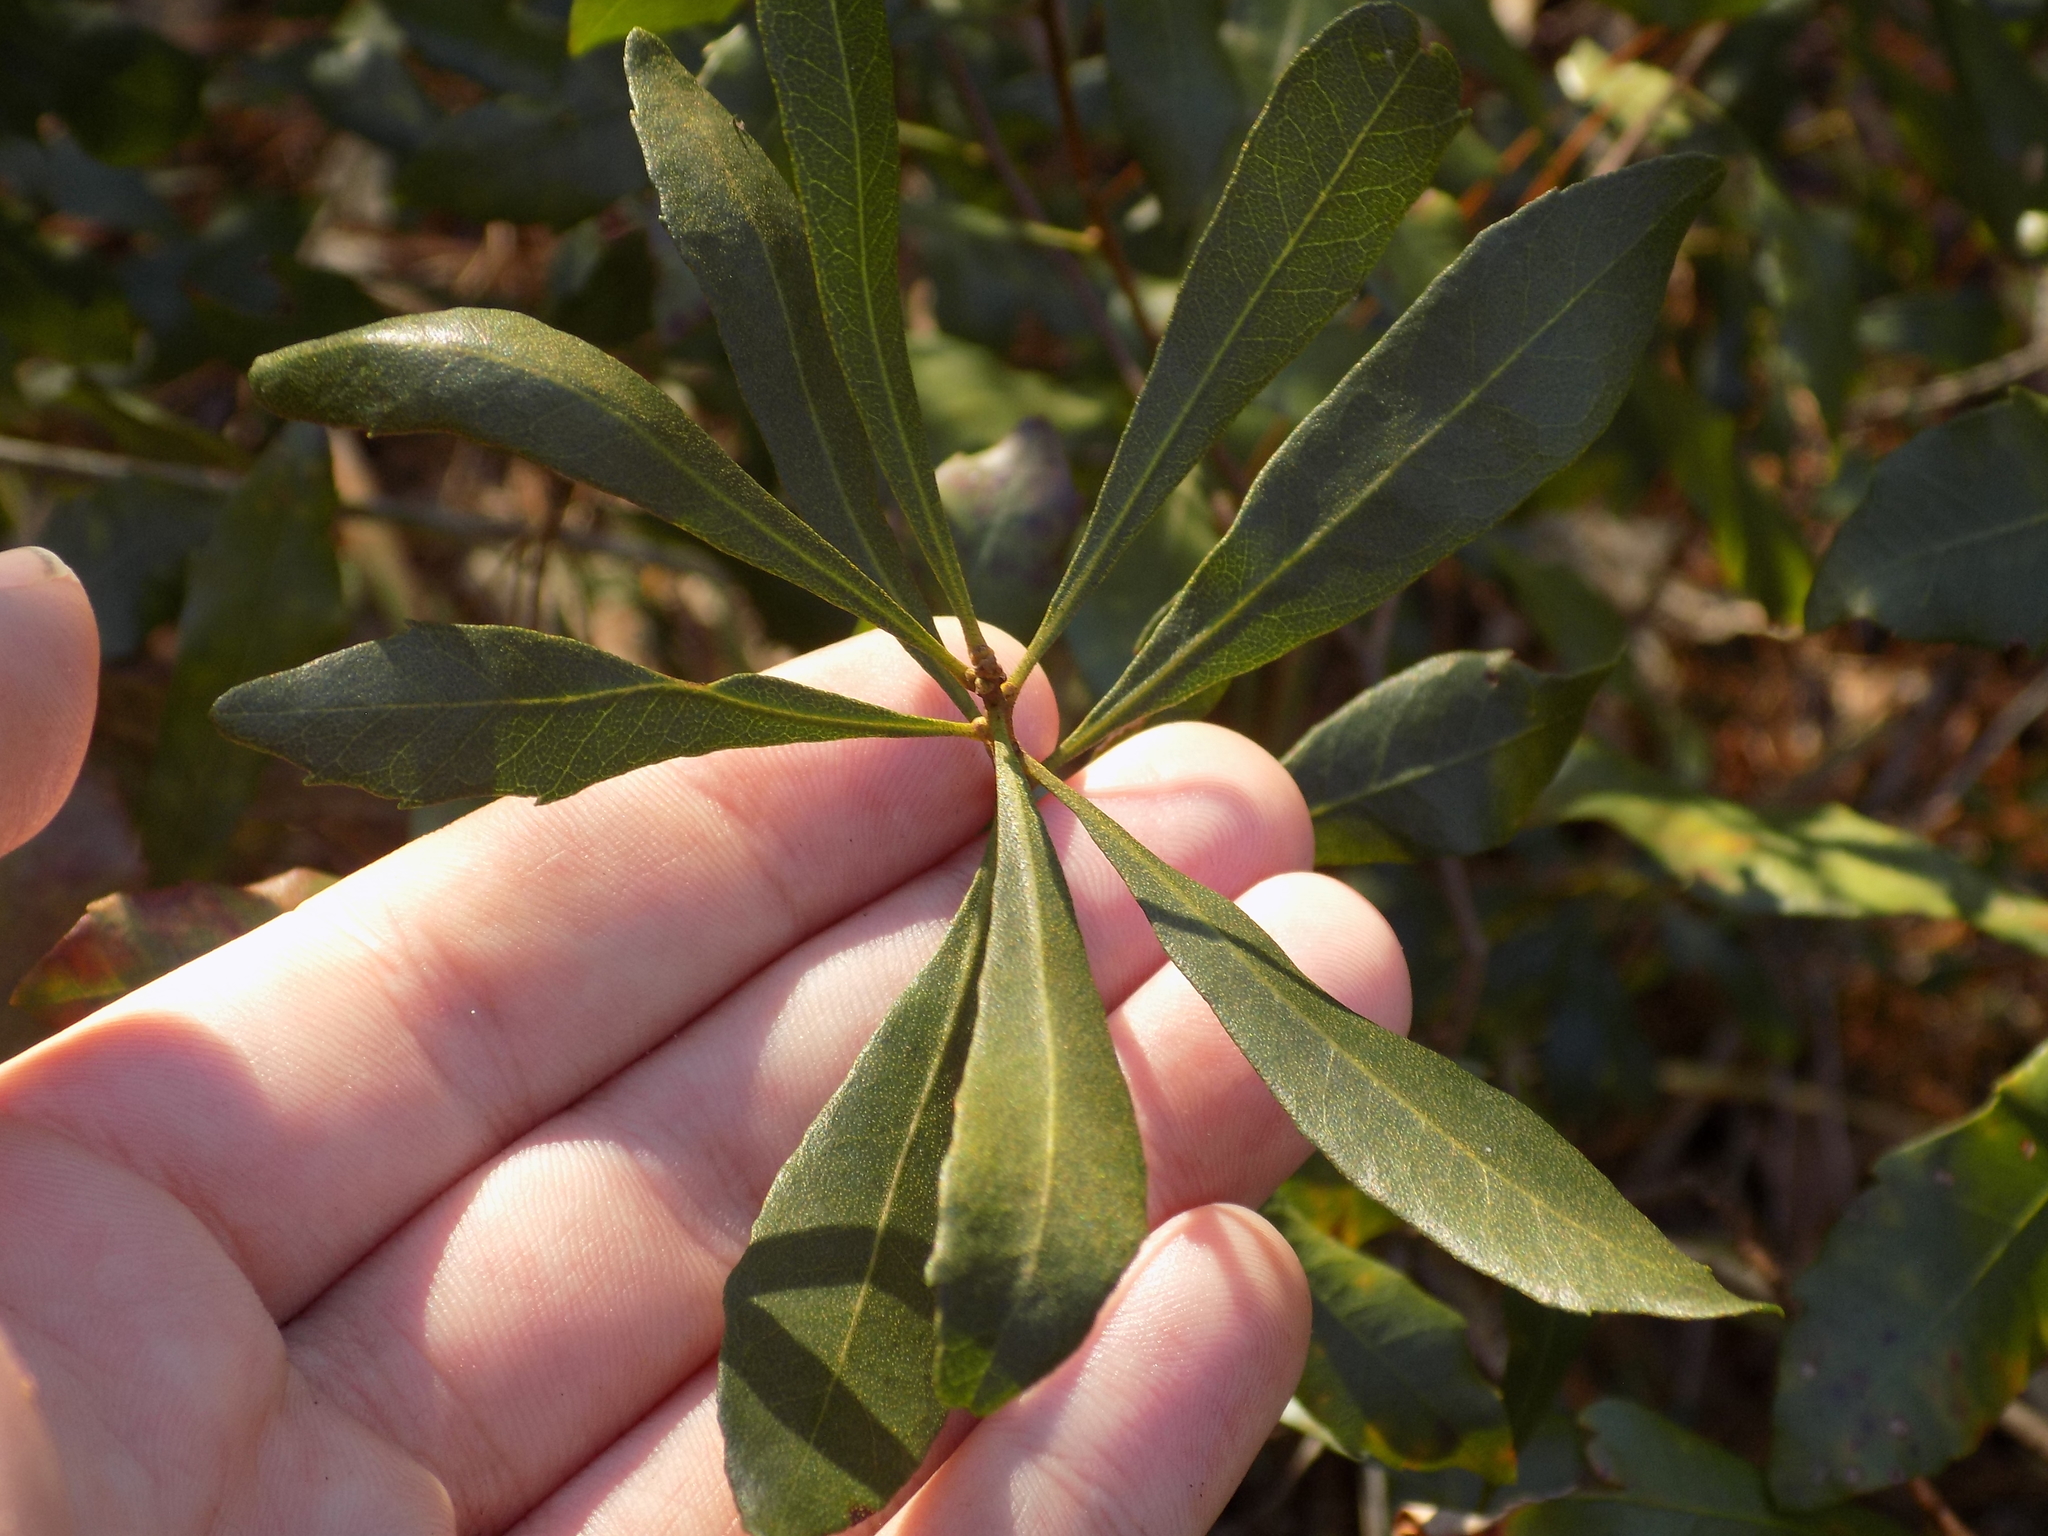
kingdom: Plantae
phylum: Tracheophyta
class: Magnoliopsida
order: Fagales
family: Myricaceae
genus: Morella
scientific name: Morella cerifera
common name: Wax myrtle
